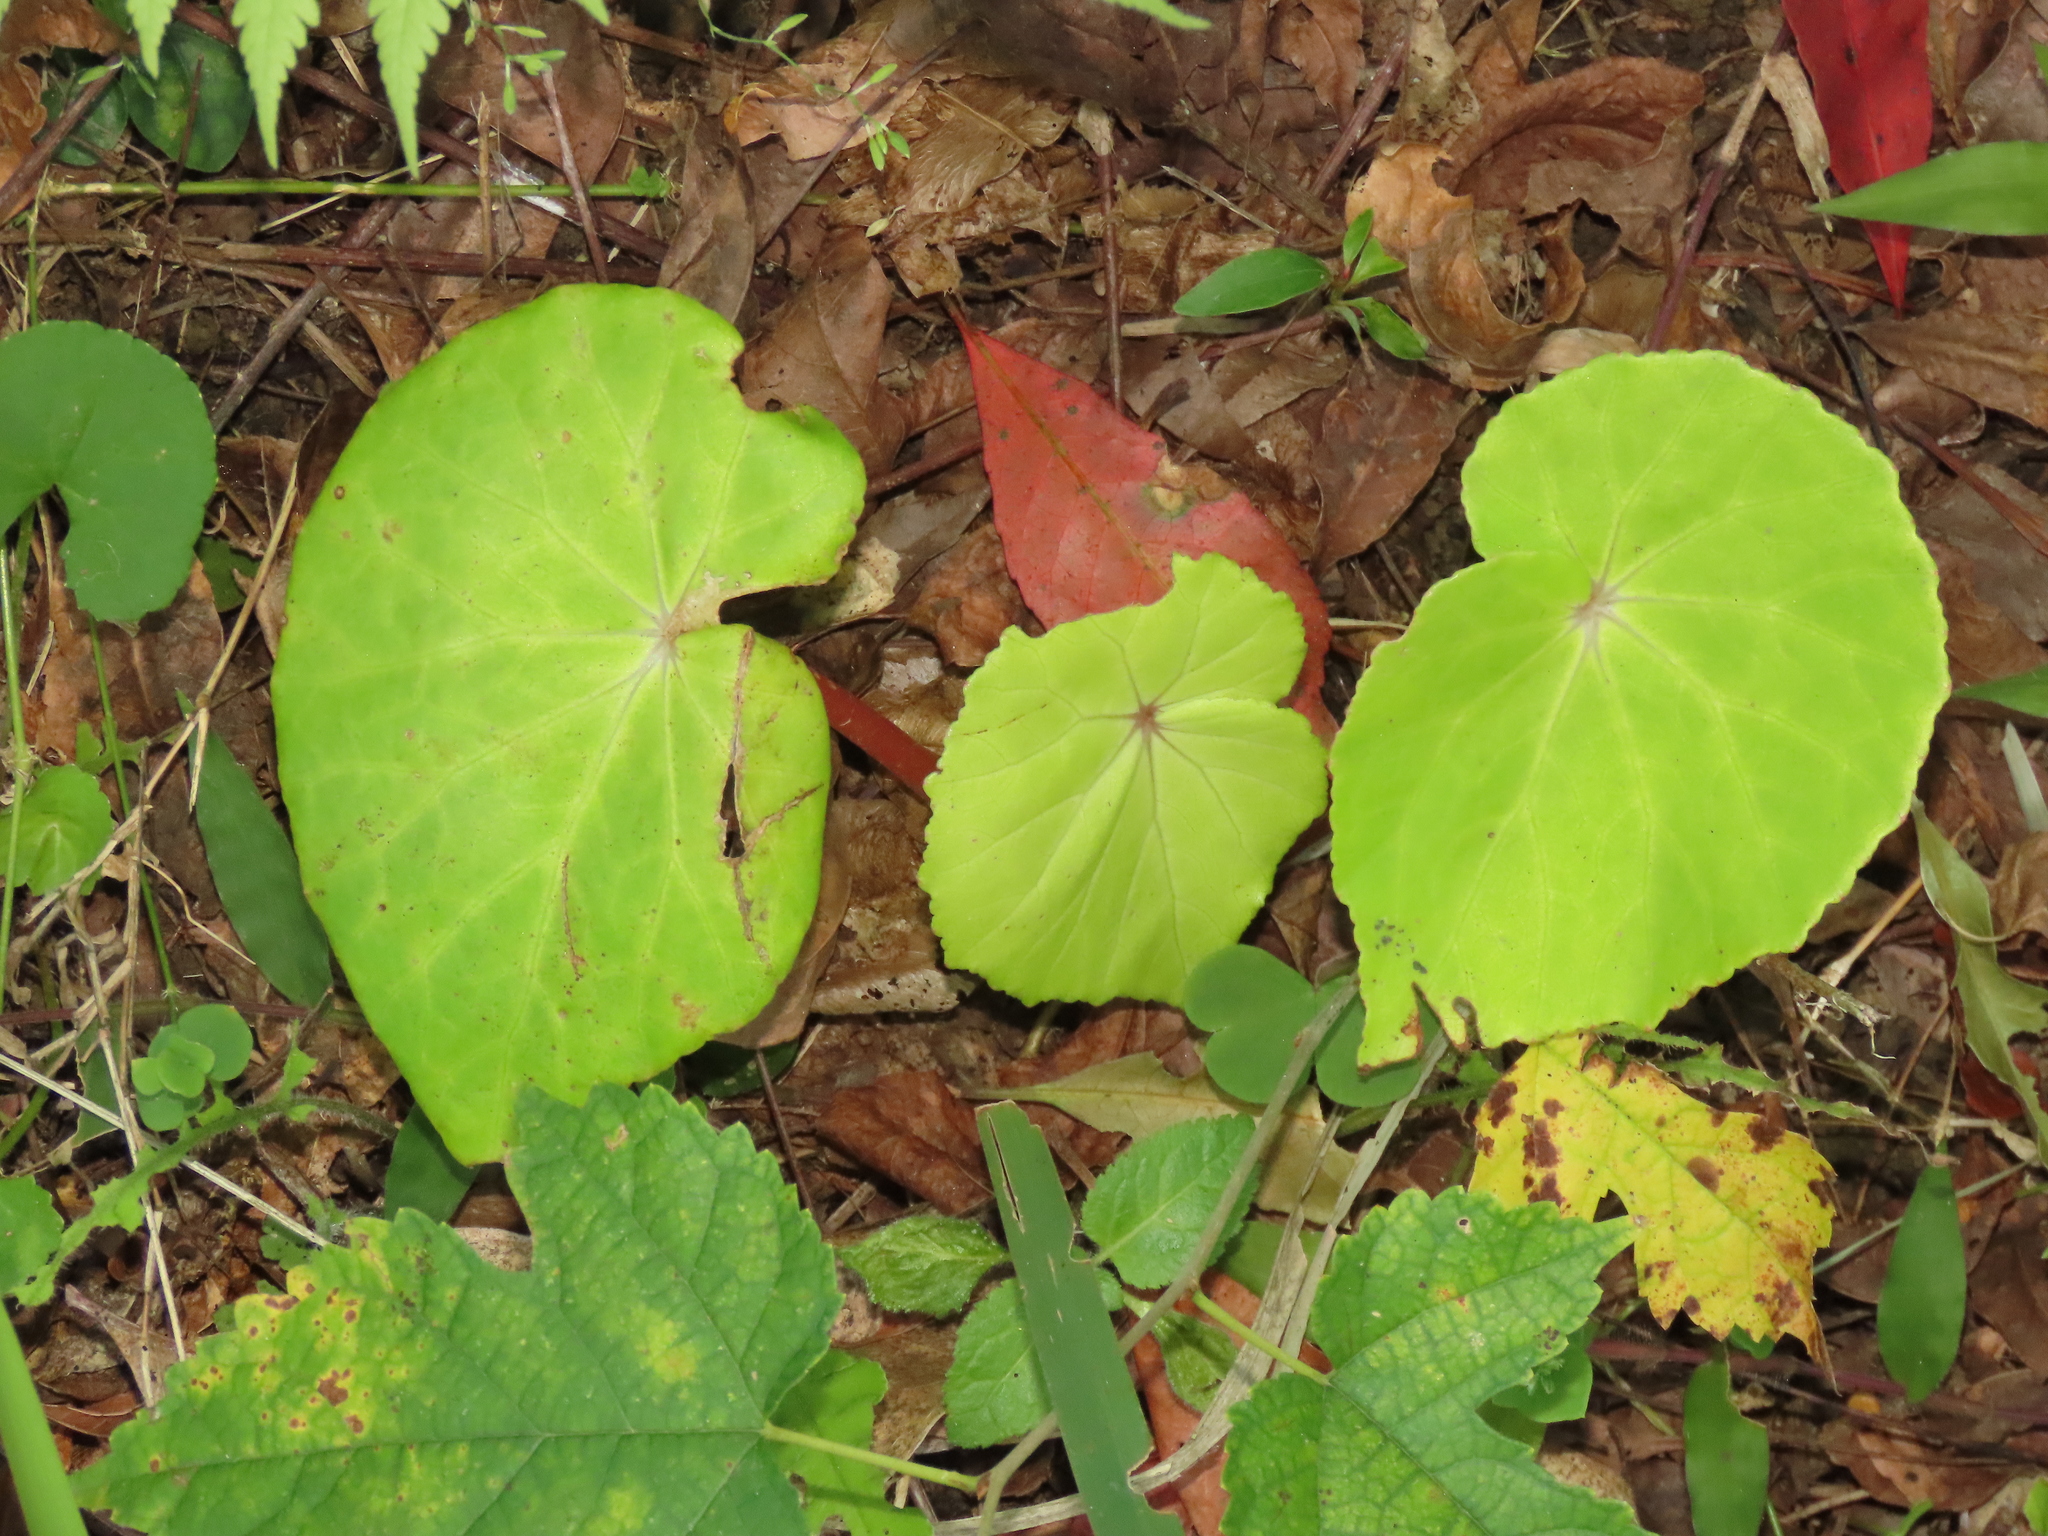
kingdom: Plantae
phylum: Tracheophyta
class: Magnoliopsida
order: Cucurbitales
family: Begoniaceae
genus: Begonia
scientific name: Begonia fenicis
